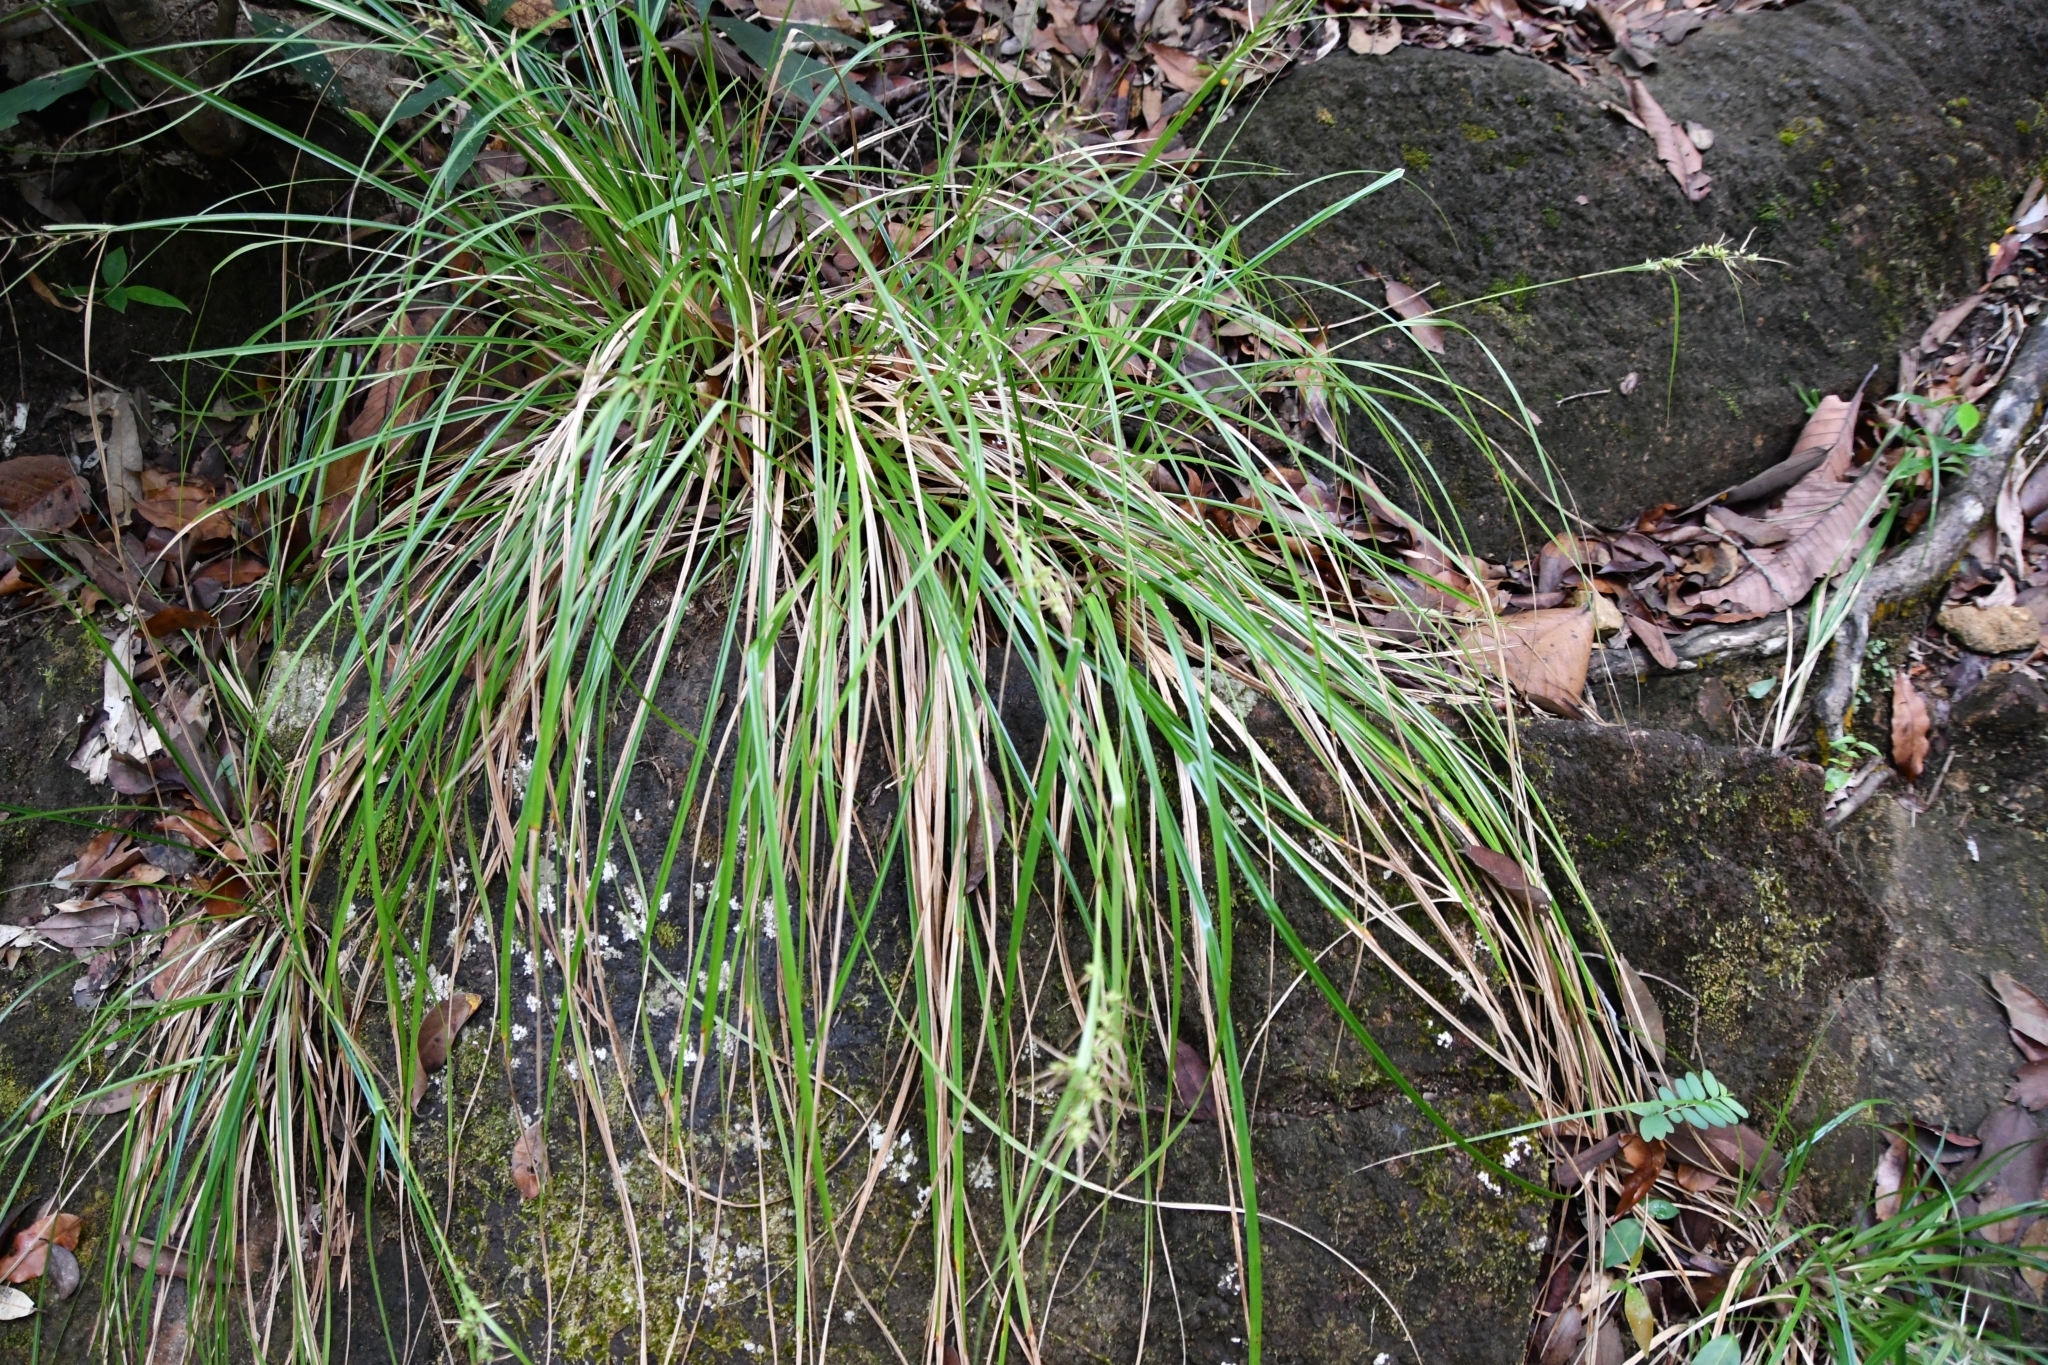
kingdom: Plantae
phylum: Tracheophyta
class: Liliopsida
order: Poales
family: Cyperaceae
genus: Carex
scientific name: Carex myosurus
